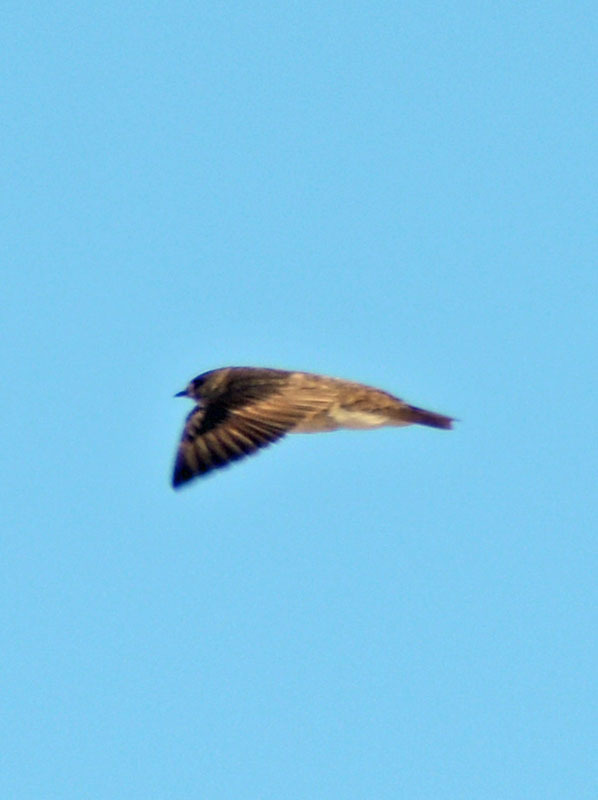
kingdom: Animalia
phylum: Chordata
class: Aves
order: Passeriformes
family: Hirundinidae
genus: Stelgidopteryx
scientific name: Stelgidopteryx serripennis
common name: Northern rough-winged swallow
